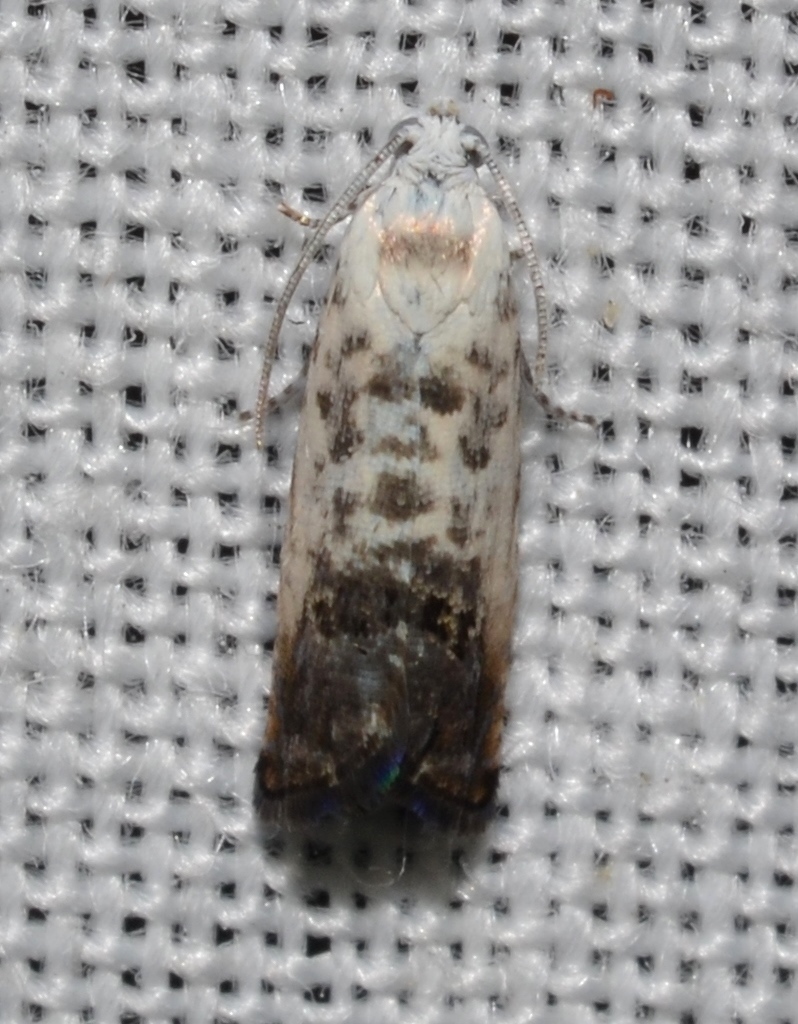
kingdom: Animalia
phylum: Arthropoda
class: Insecta
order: Lepidoptera
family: Tortricidae
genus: Cydia
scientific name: Cydia gallaesaliciana
